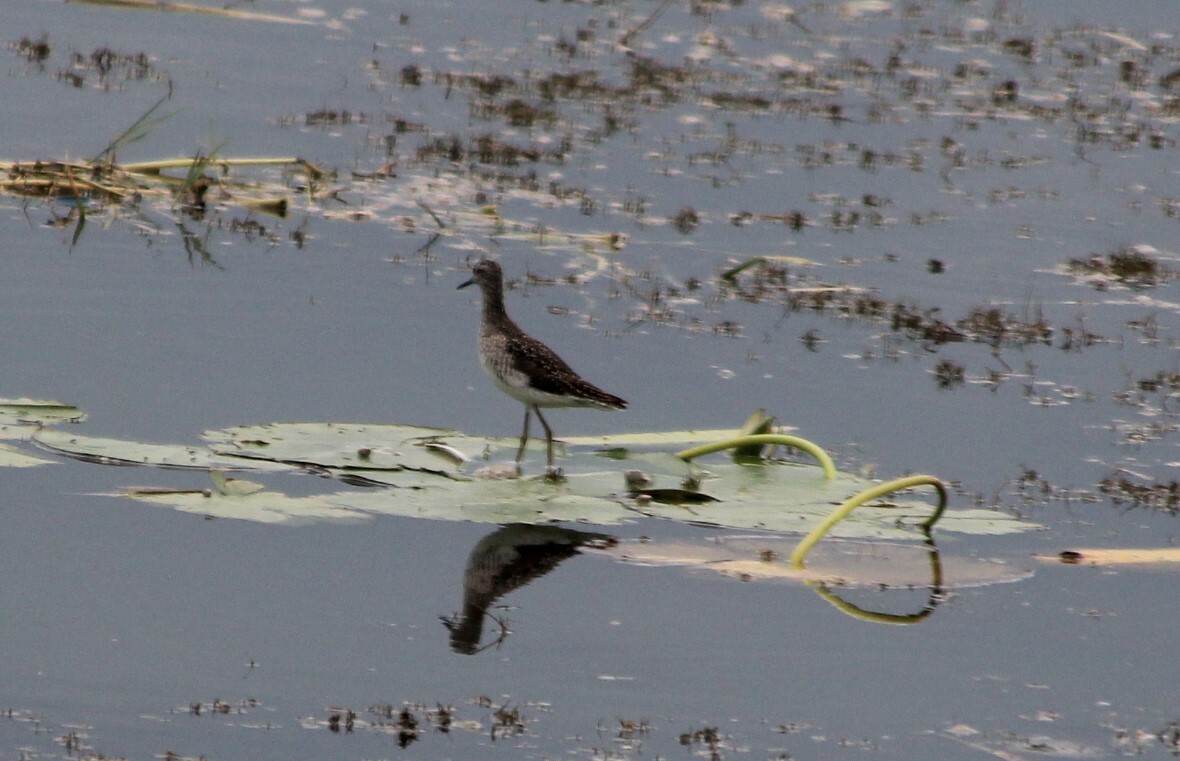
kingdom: Animalia
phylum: Chordata
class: Aves
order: Charadriiformes
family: Scolopacidae
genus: Tringa
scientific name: Tringa glareola
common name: Wood sandpiper
